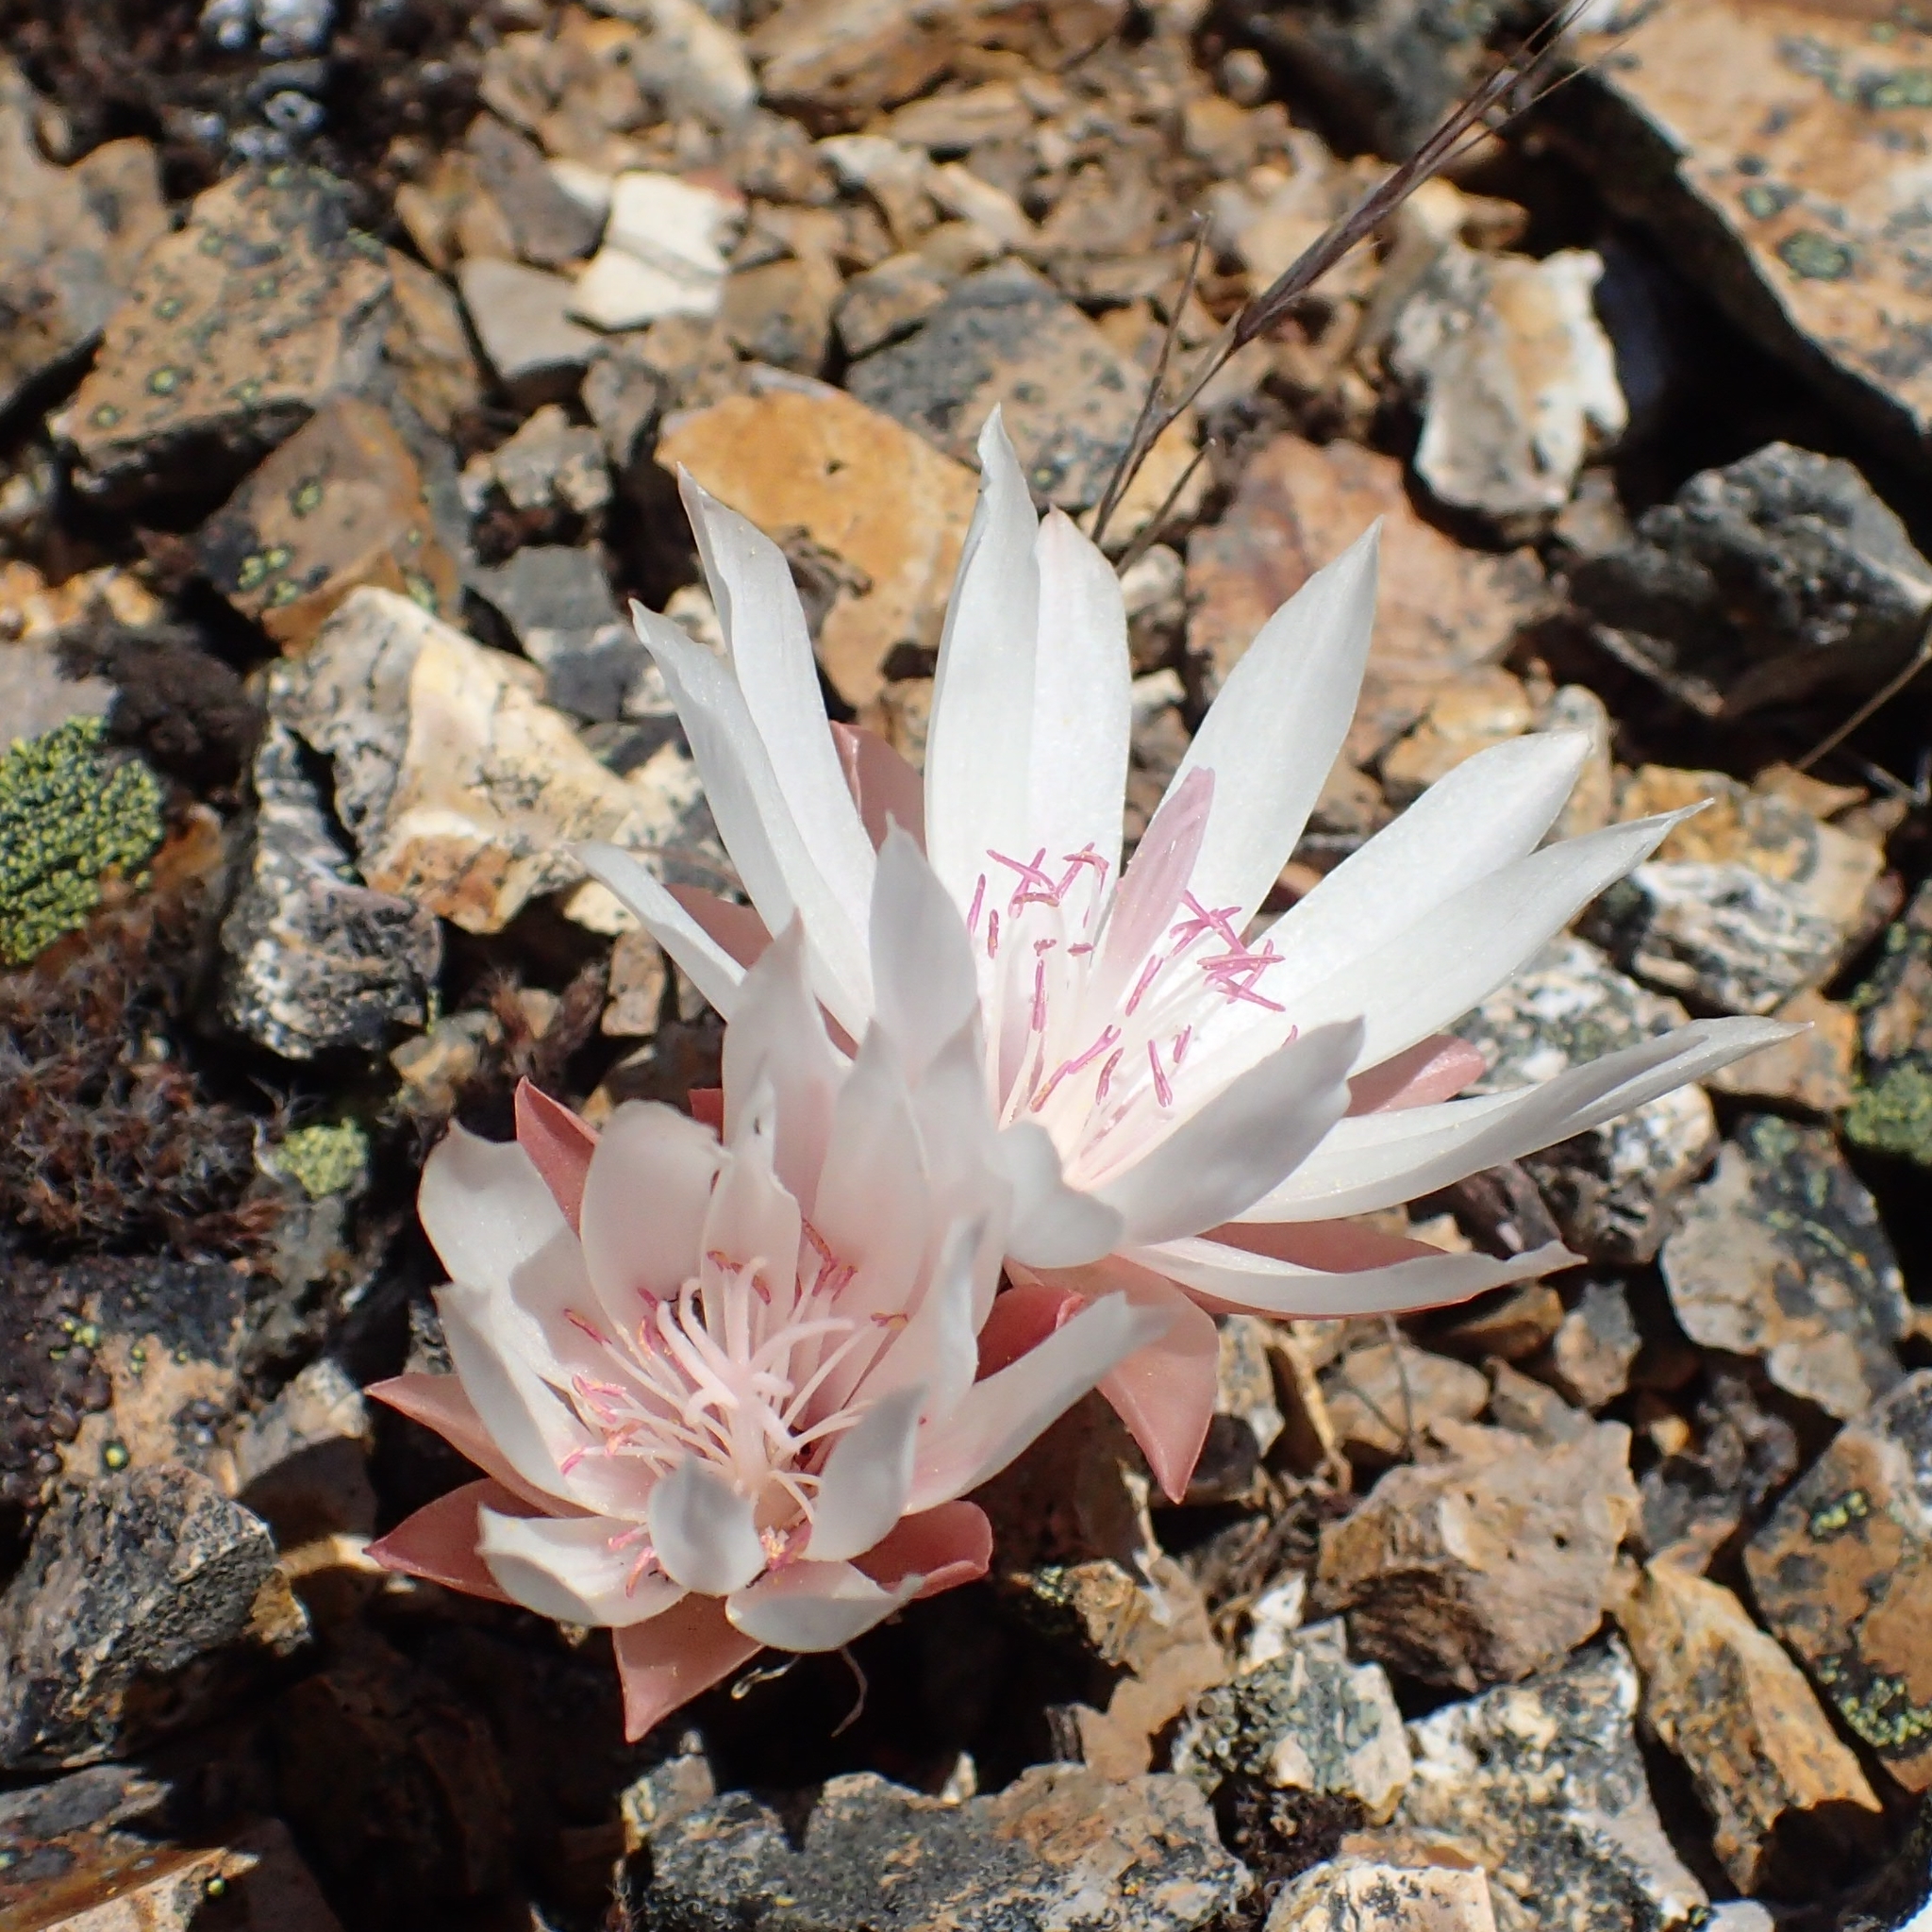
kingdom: Plantae
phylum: Tracheophyta
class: Magnoliopsida
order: Caryophyllales
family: Montiaceae
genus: Lewisia
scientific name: Lewisia rediviva
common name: Bitter-root
